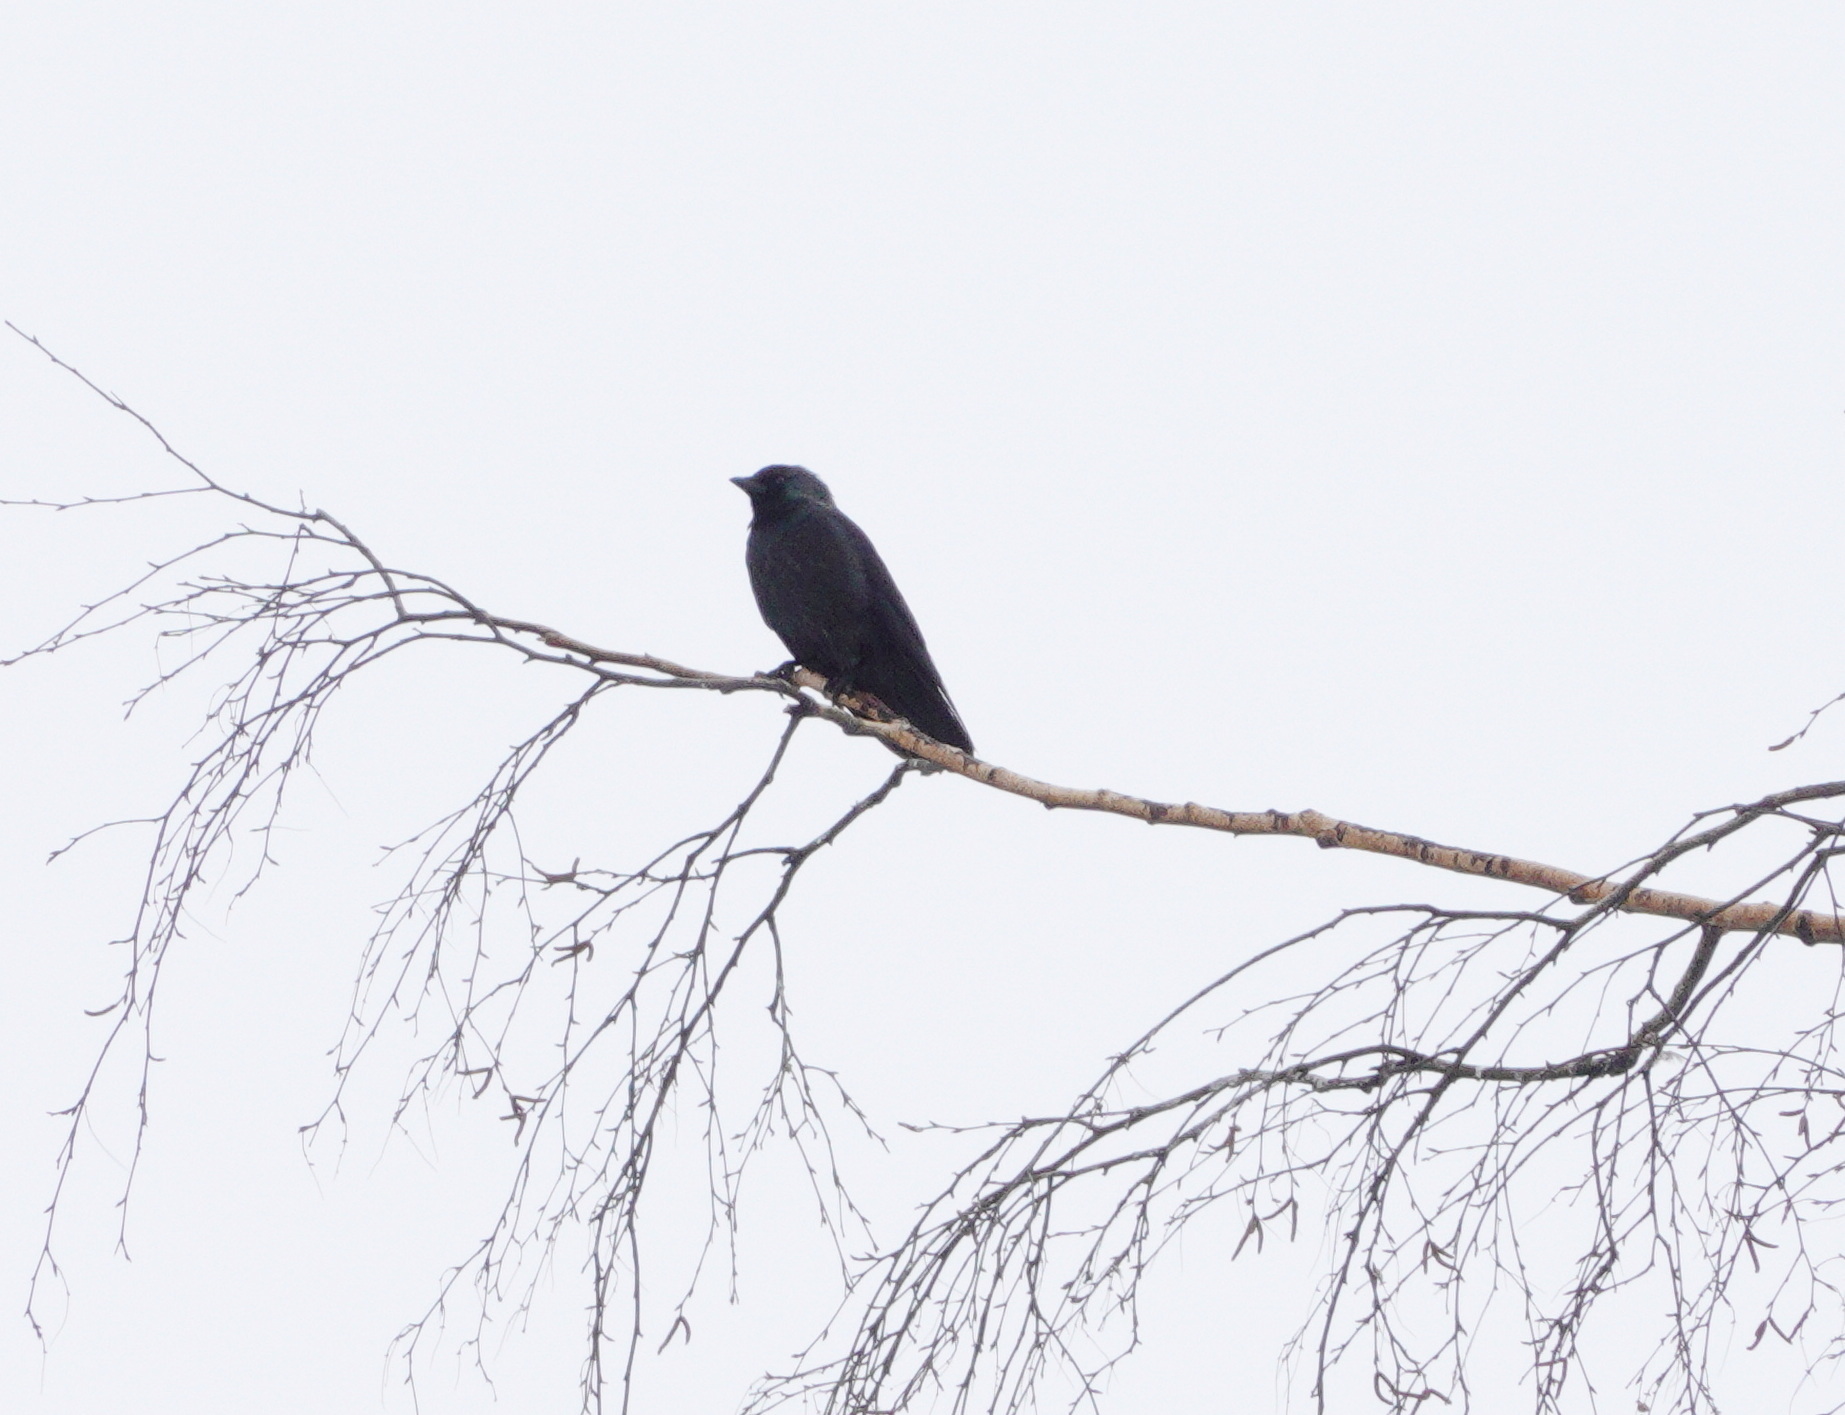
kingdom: Animalia
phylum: Chordata
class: Aves
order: Passeriformes
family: Corvidae
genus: Coloeus
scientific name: Coloeus monedula
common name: Western jackdaw
